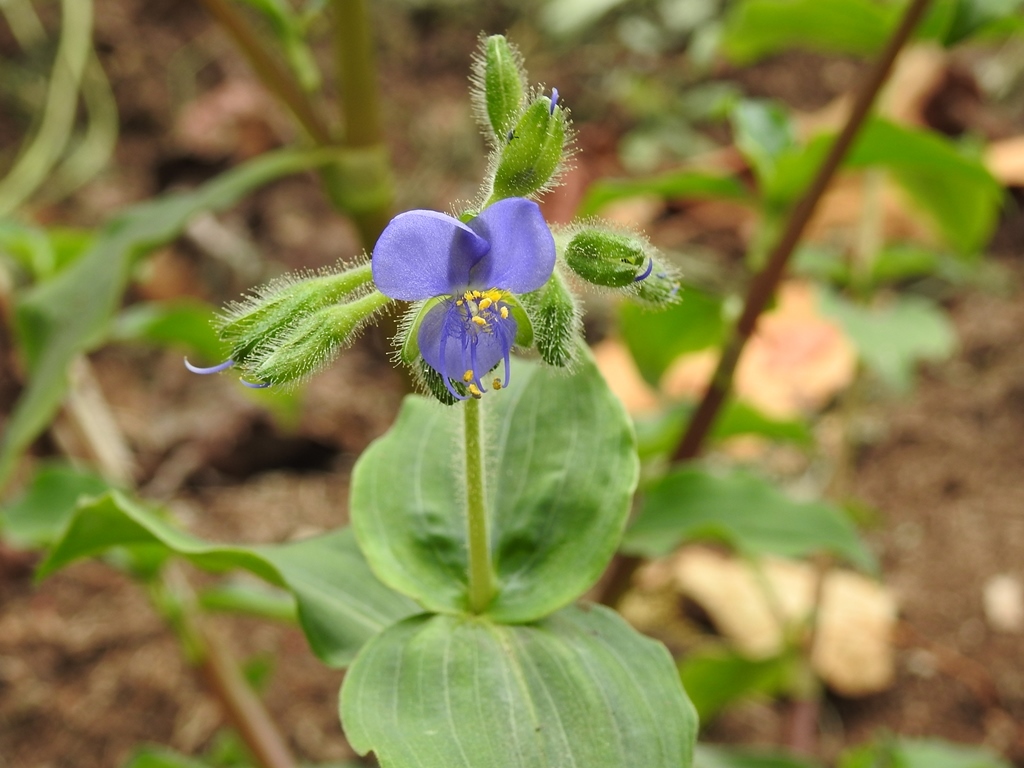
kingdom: Plantae
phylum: Tracheophyta
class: Liliopsida
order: Commelinales
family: Commelinaceae
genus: Tinantia
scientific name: Tinantia erecta
